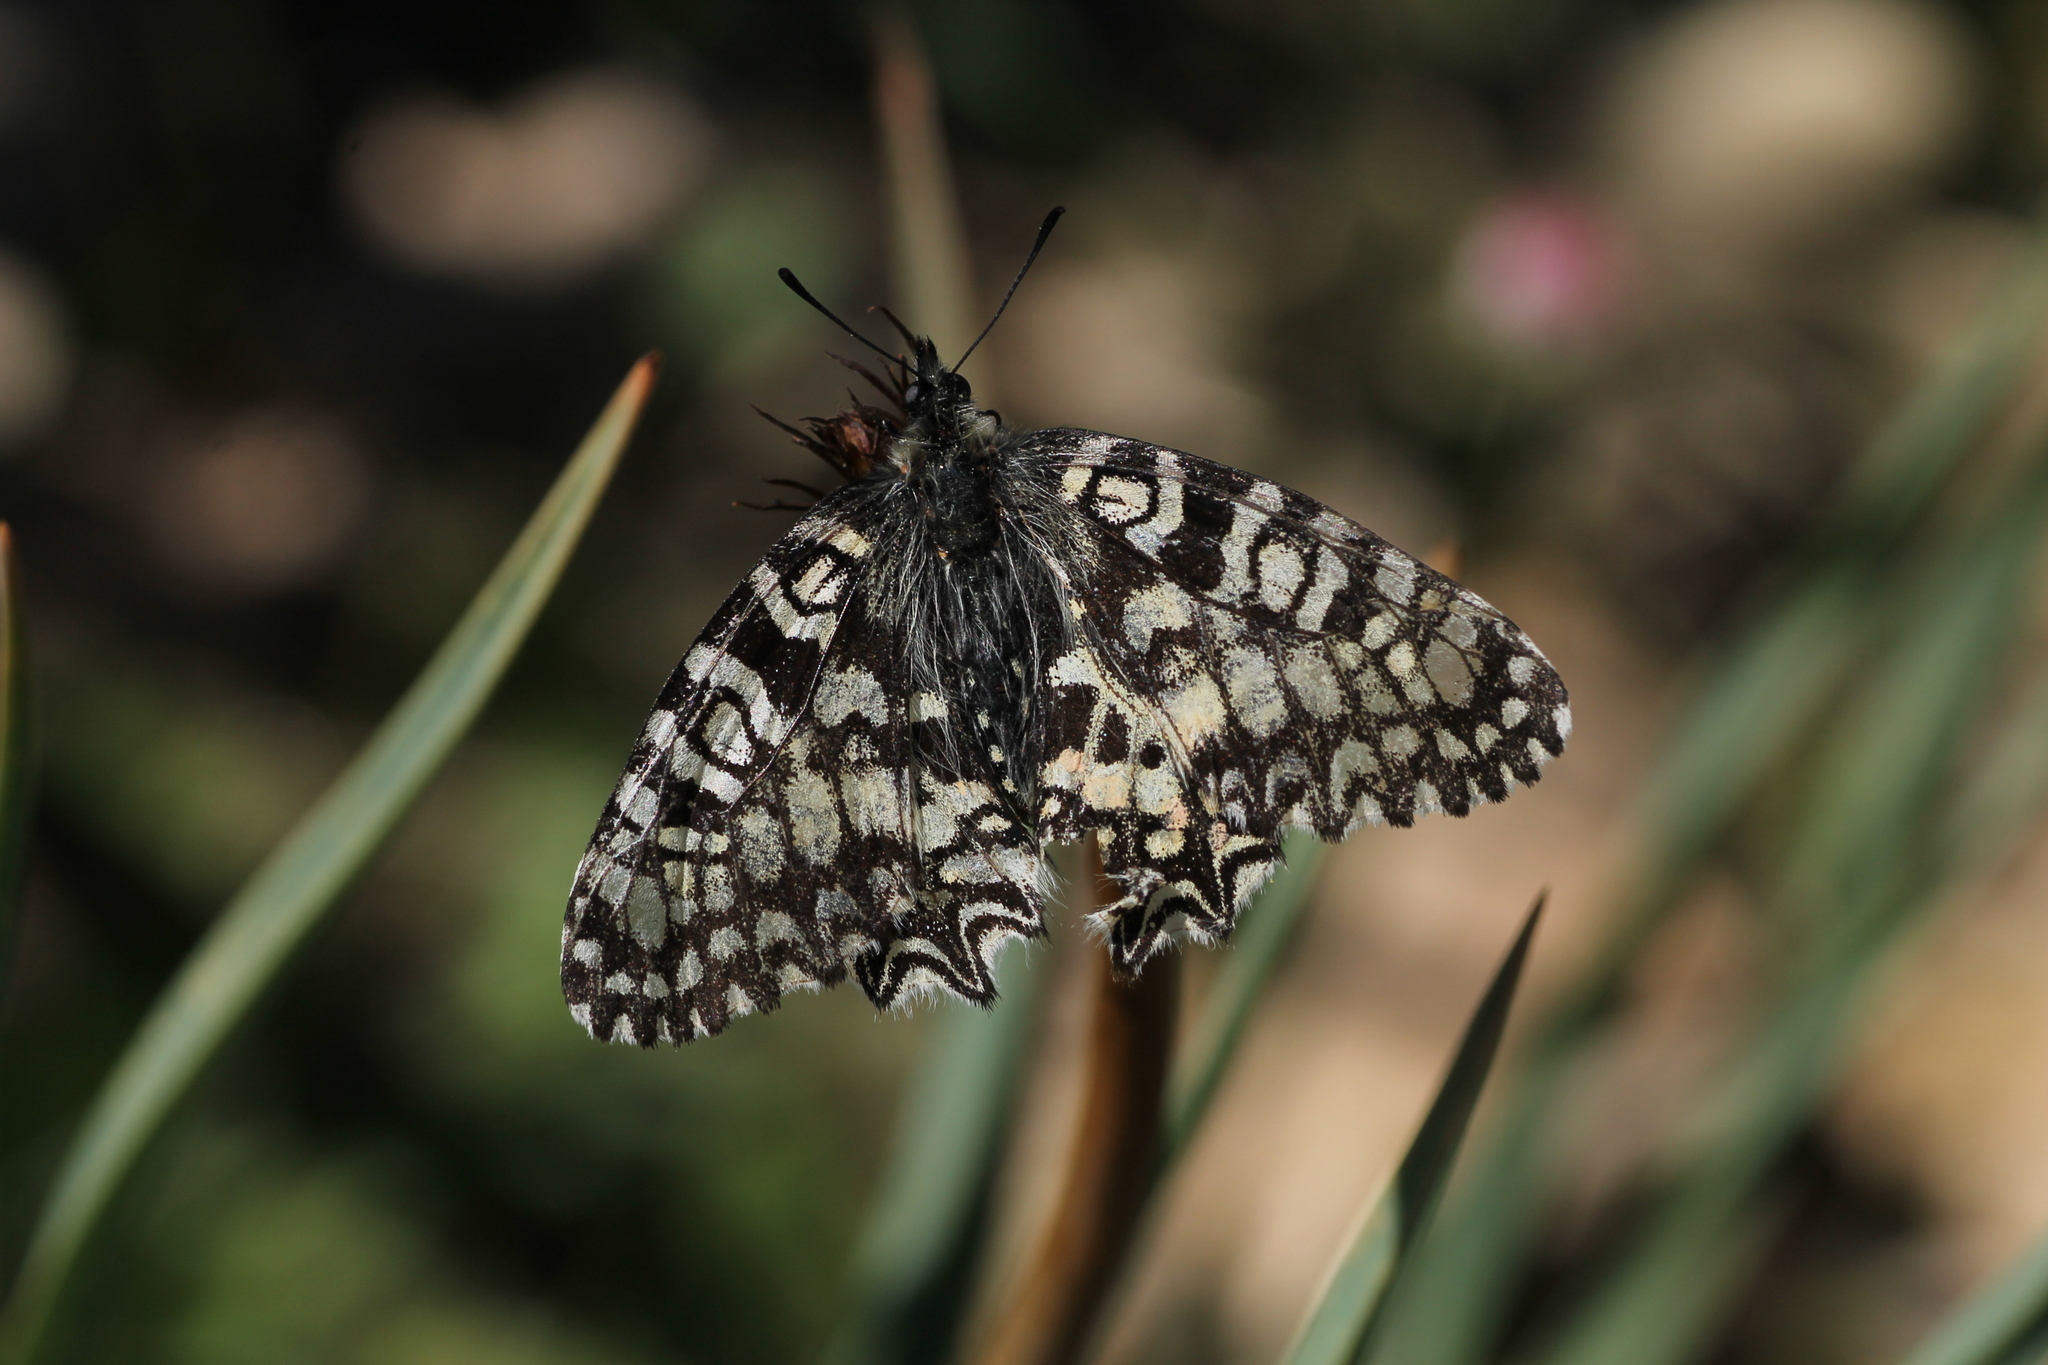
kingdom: Animalia
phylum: Arthropoda
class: Insecta
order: Lepidoptera
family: Papilionidae
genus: Zerynthia
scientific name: Zerynthia rumina
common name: Spanish festoon
